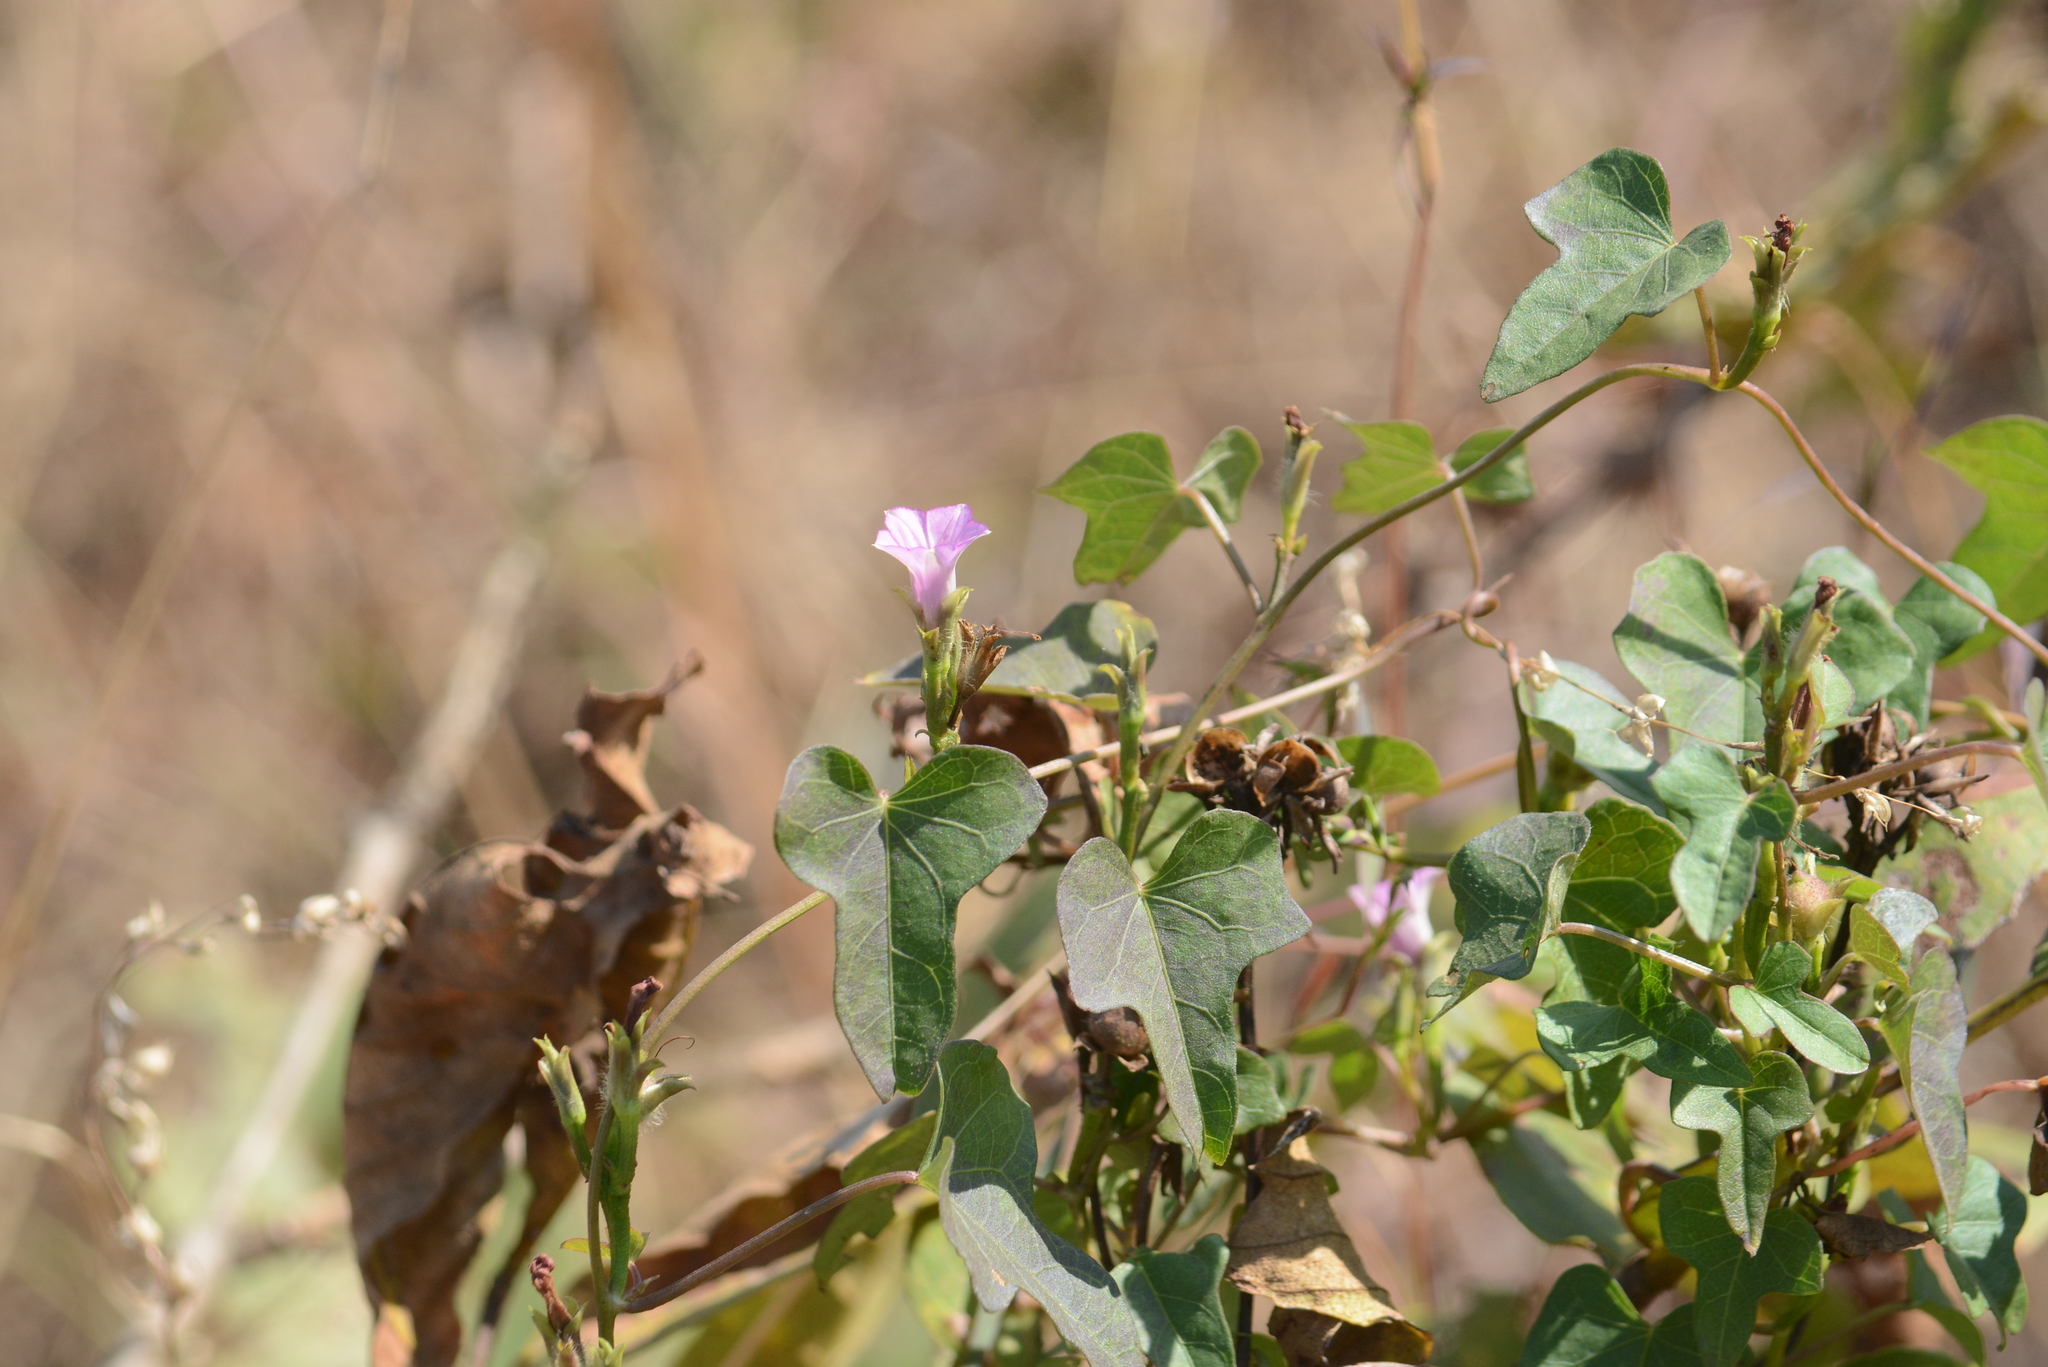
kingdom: Plantae
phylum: Tracheophyta
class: Magnoliopsida
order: Solanales
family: Convolvulaceae
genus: Ipomoea
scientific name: Ipomoea triloba
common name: Little-bell
